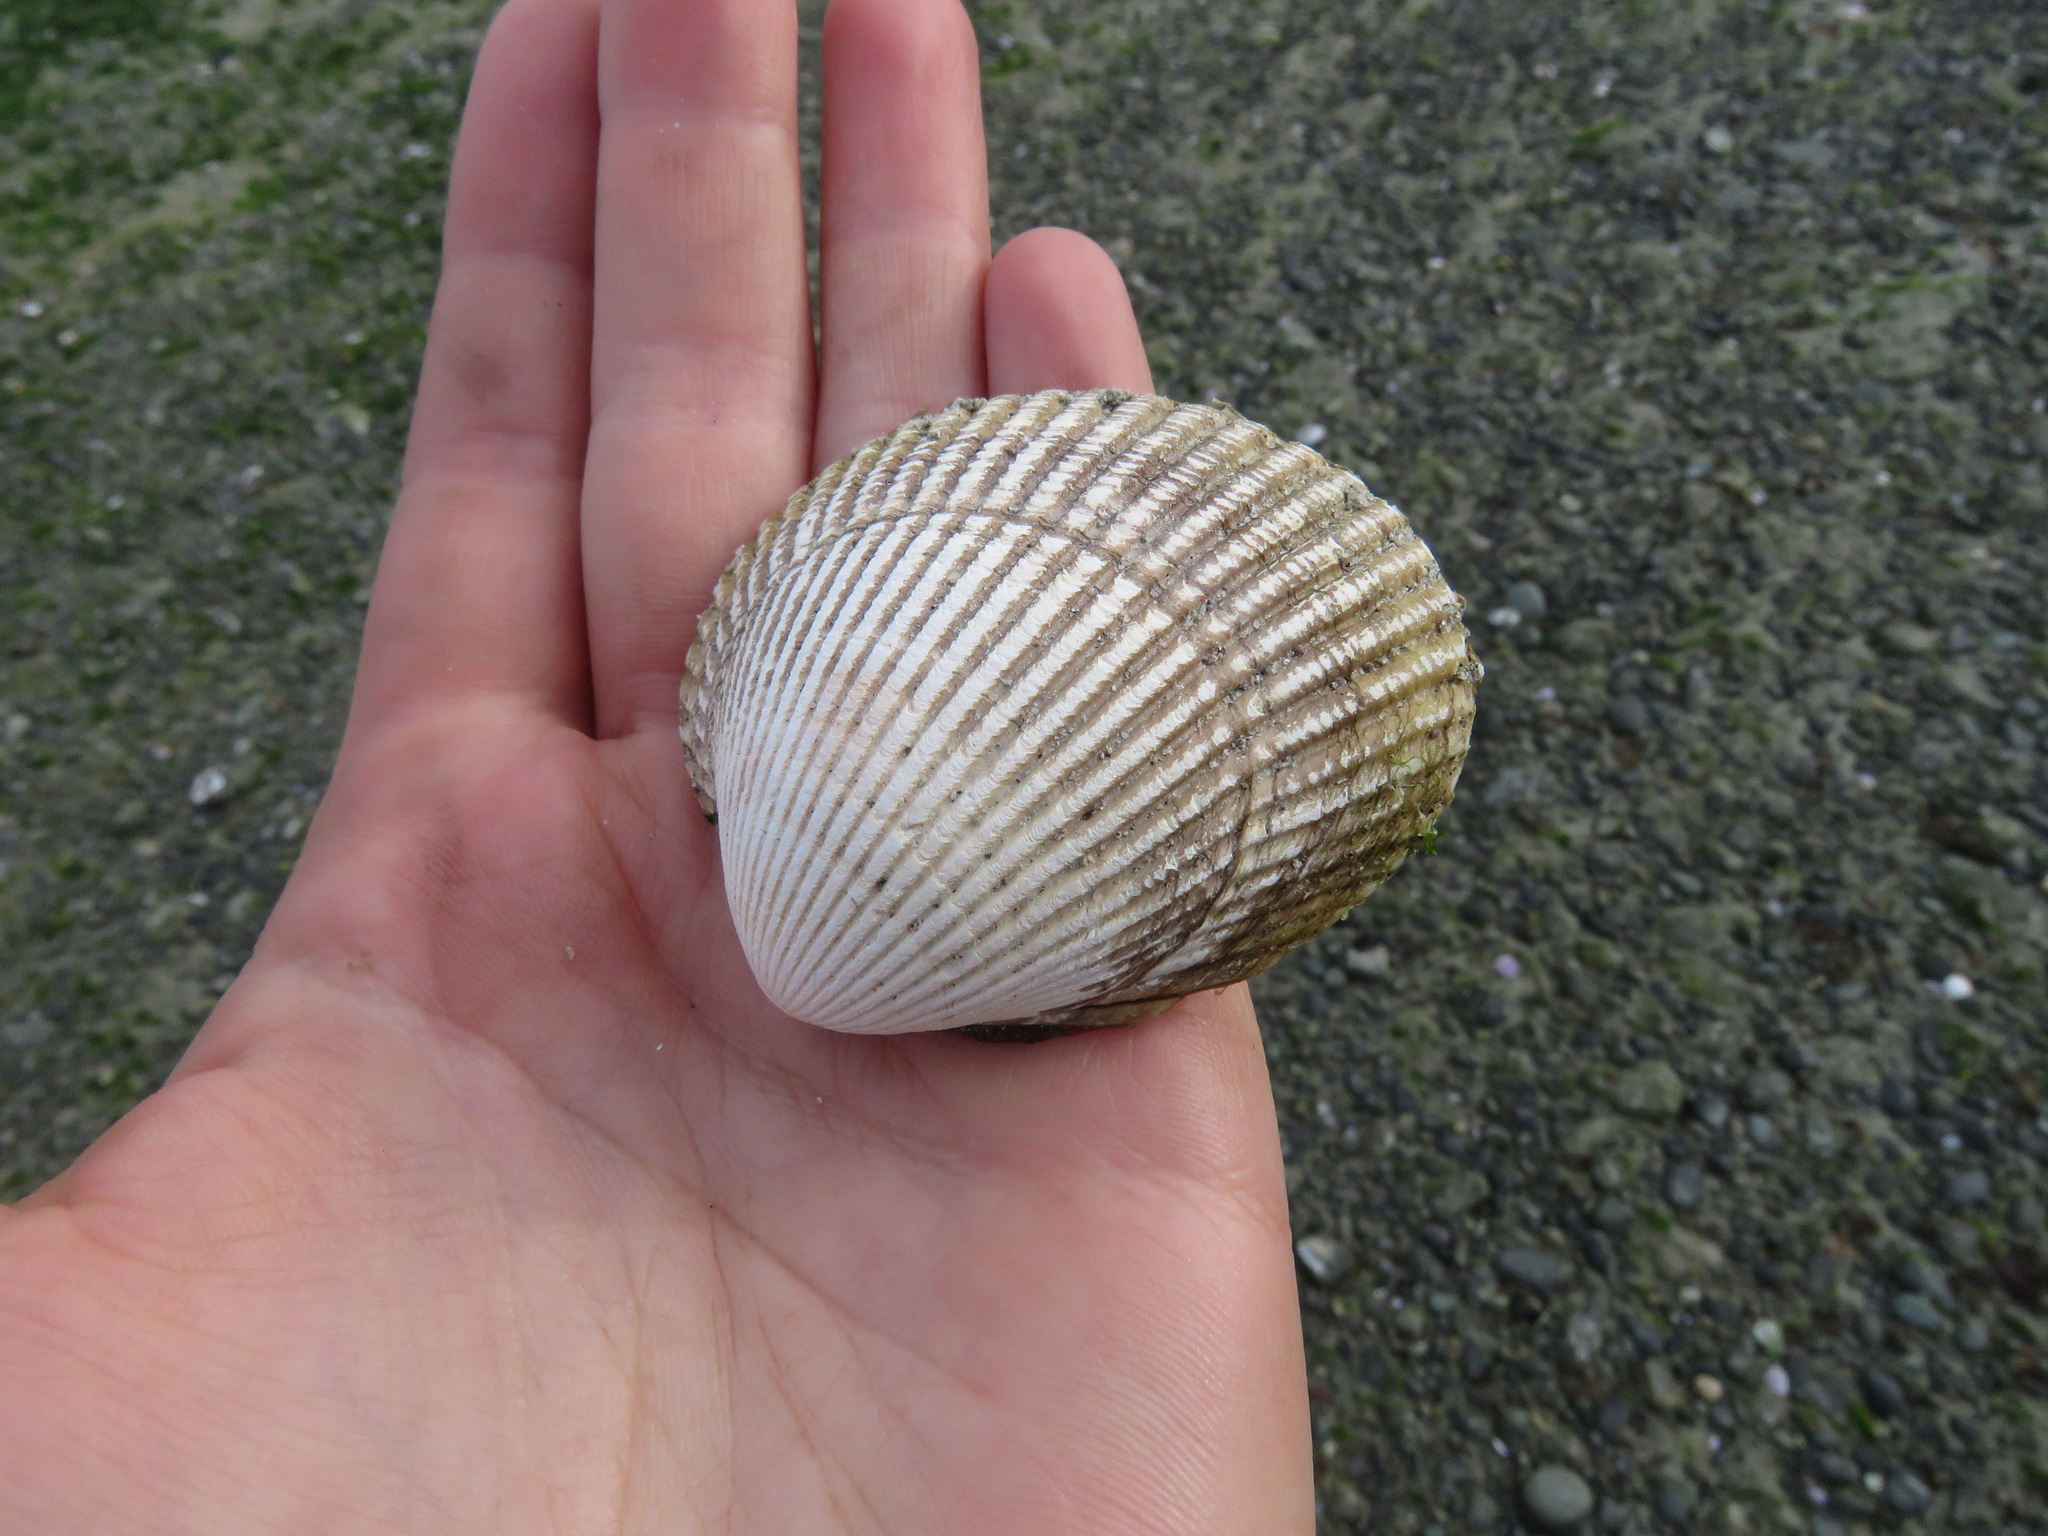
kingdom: Animalia
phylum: Mollusca
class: Bivalvia
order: Cardiida
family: Cardiidae
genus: Clinocardium
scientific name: Clinocardium nuttallii
